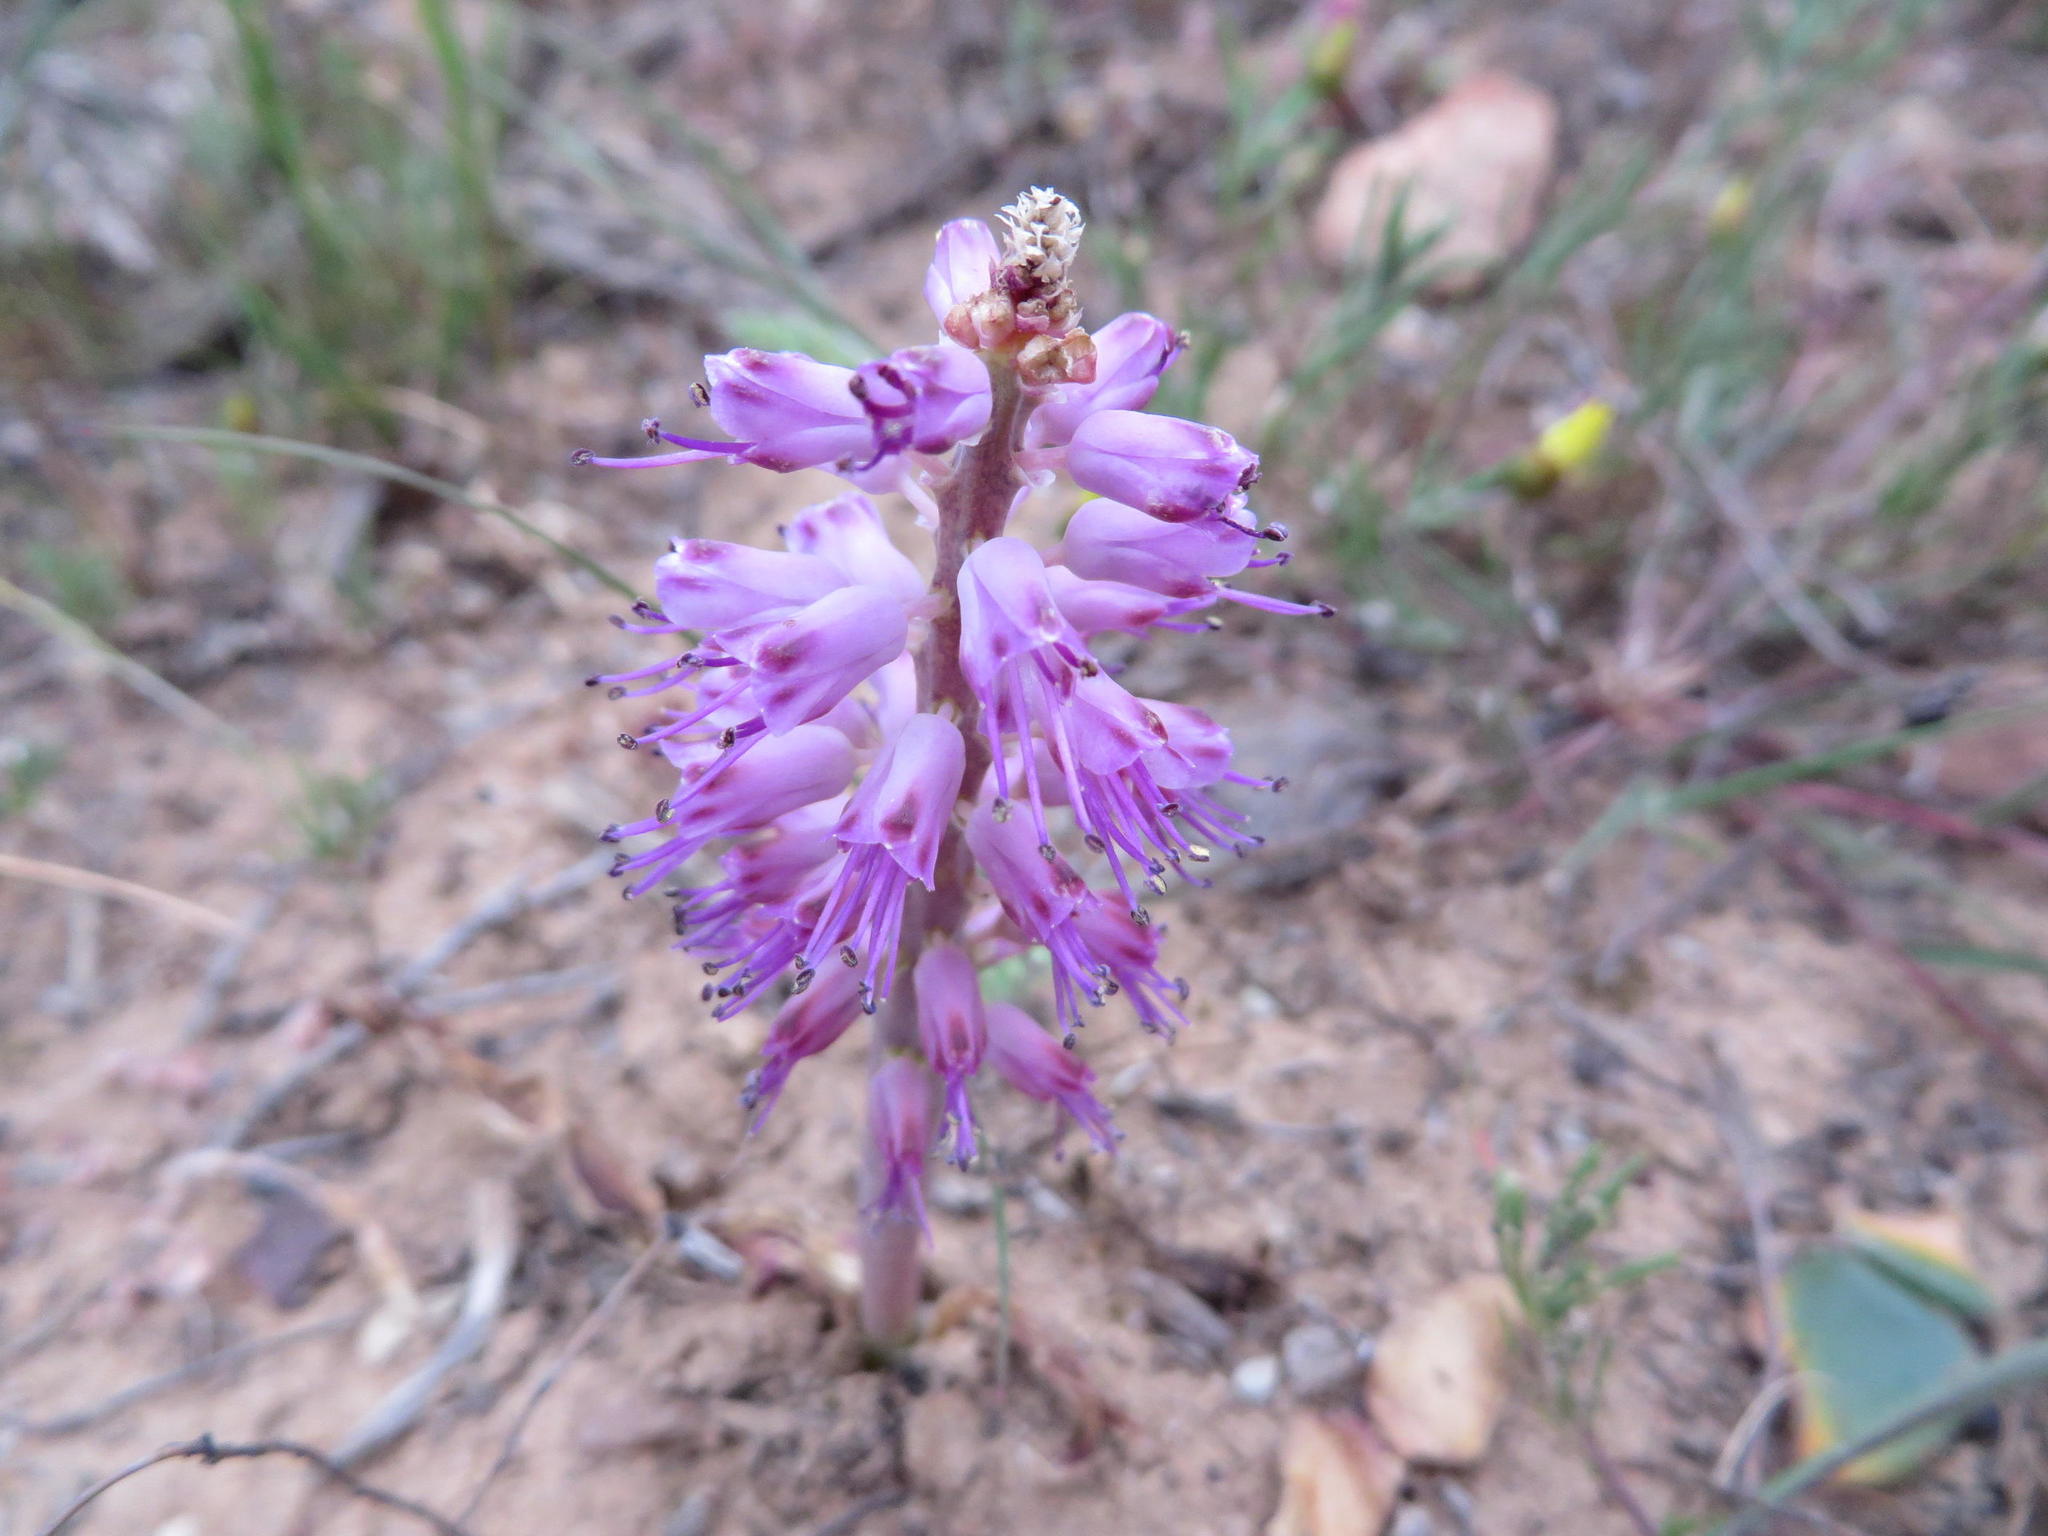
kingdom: Plantae
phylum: Tracheophyta
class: Liliopsida
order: Asparagales
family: Asparagaceae
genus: Lachenalia
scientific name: Lachenalia nardousbergensis
